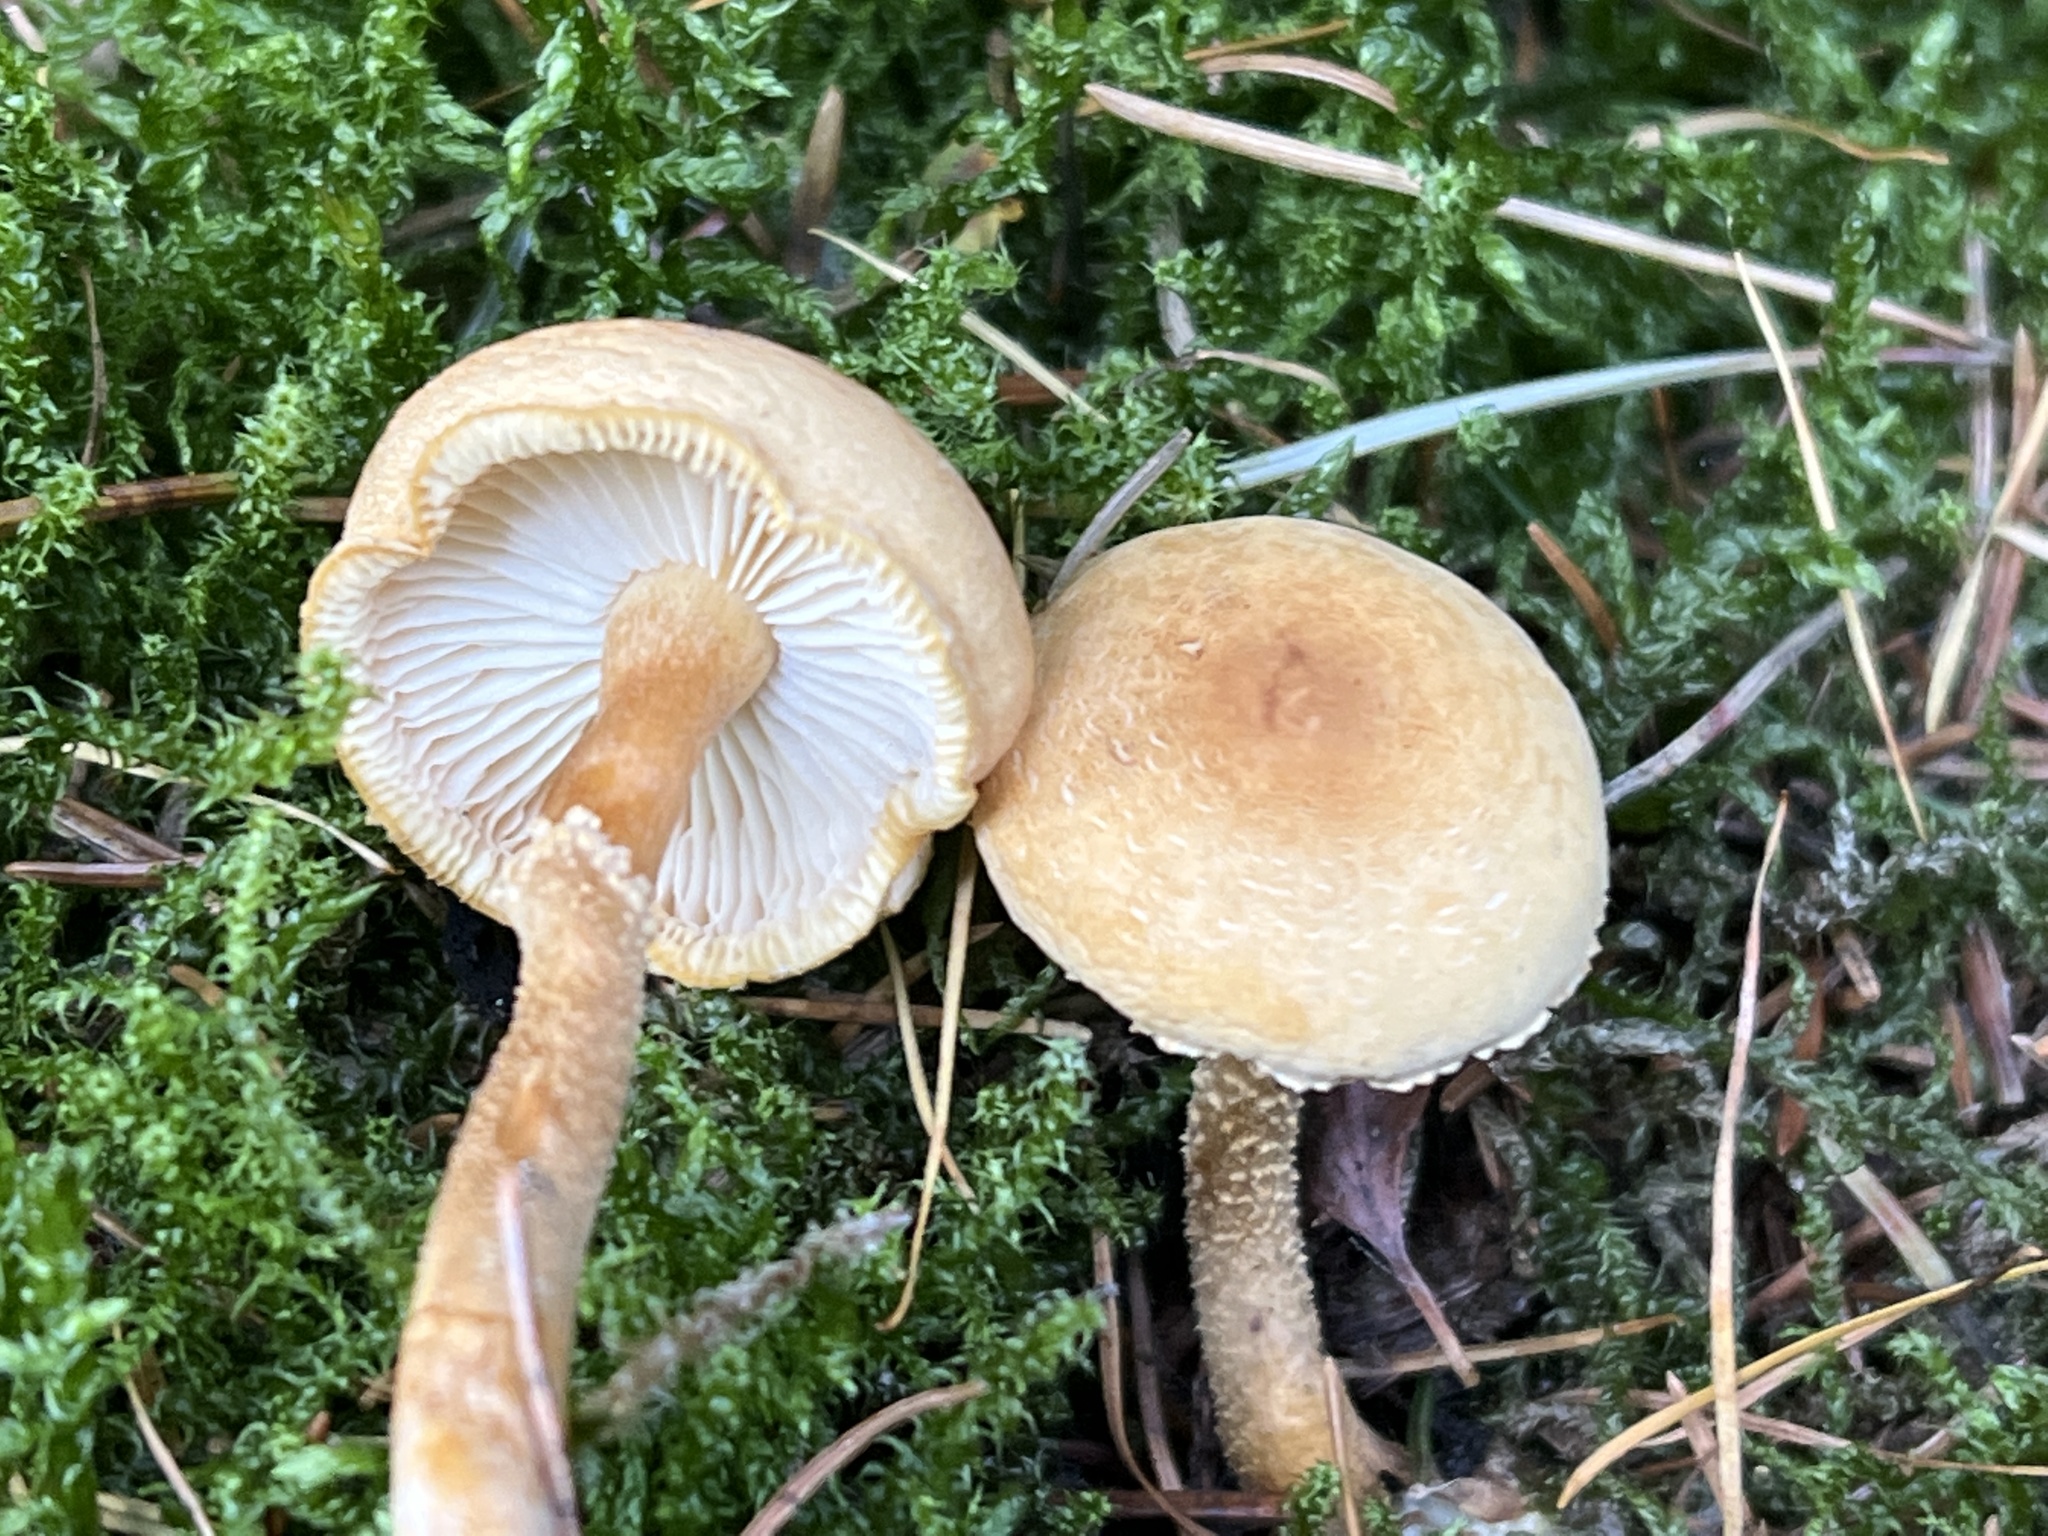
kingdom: Fungi
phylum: Basidiomycota
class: Agaricomycetes
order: Agaricales
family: Tricholomataceae
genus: Cystoderma
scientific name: Cystoderma amianthinum
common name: Earthy powdercap
